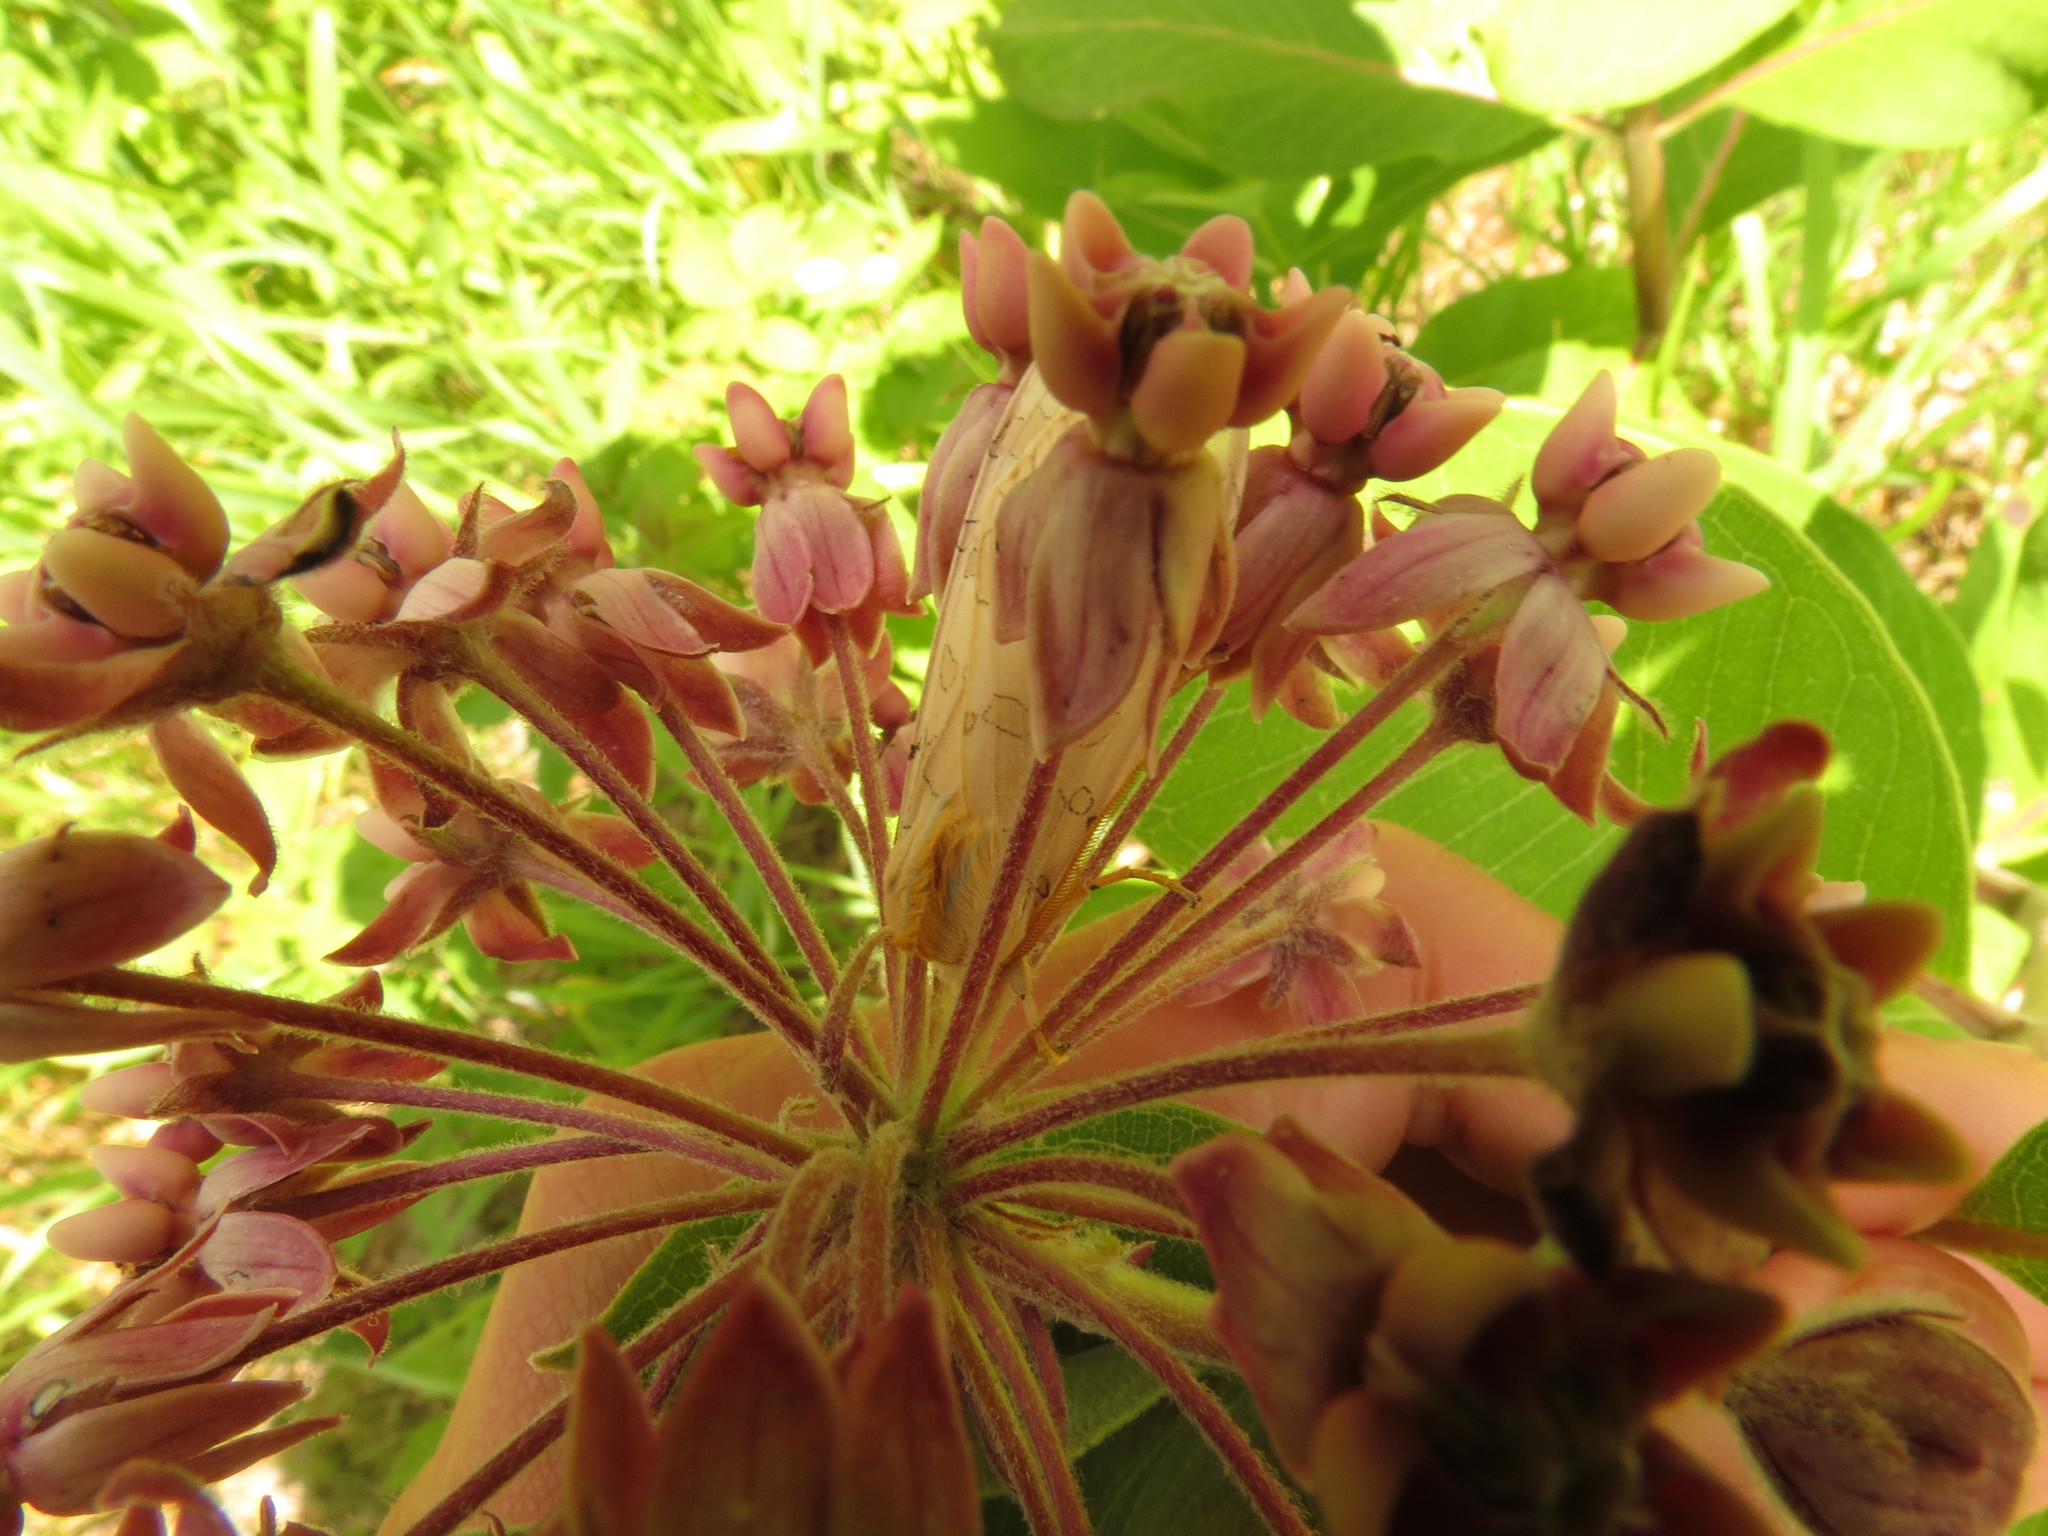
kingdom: Animalia
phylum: Arthropoda
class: Insecta
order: Lepidoptera
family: Erebidae
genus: Halysidota
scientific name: Halysidota tessellaris
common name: Banded tussock moth
